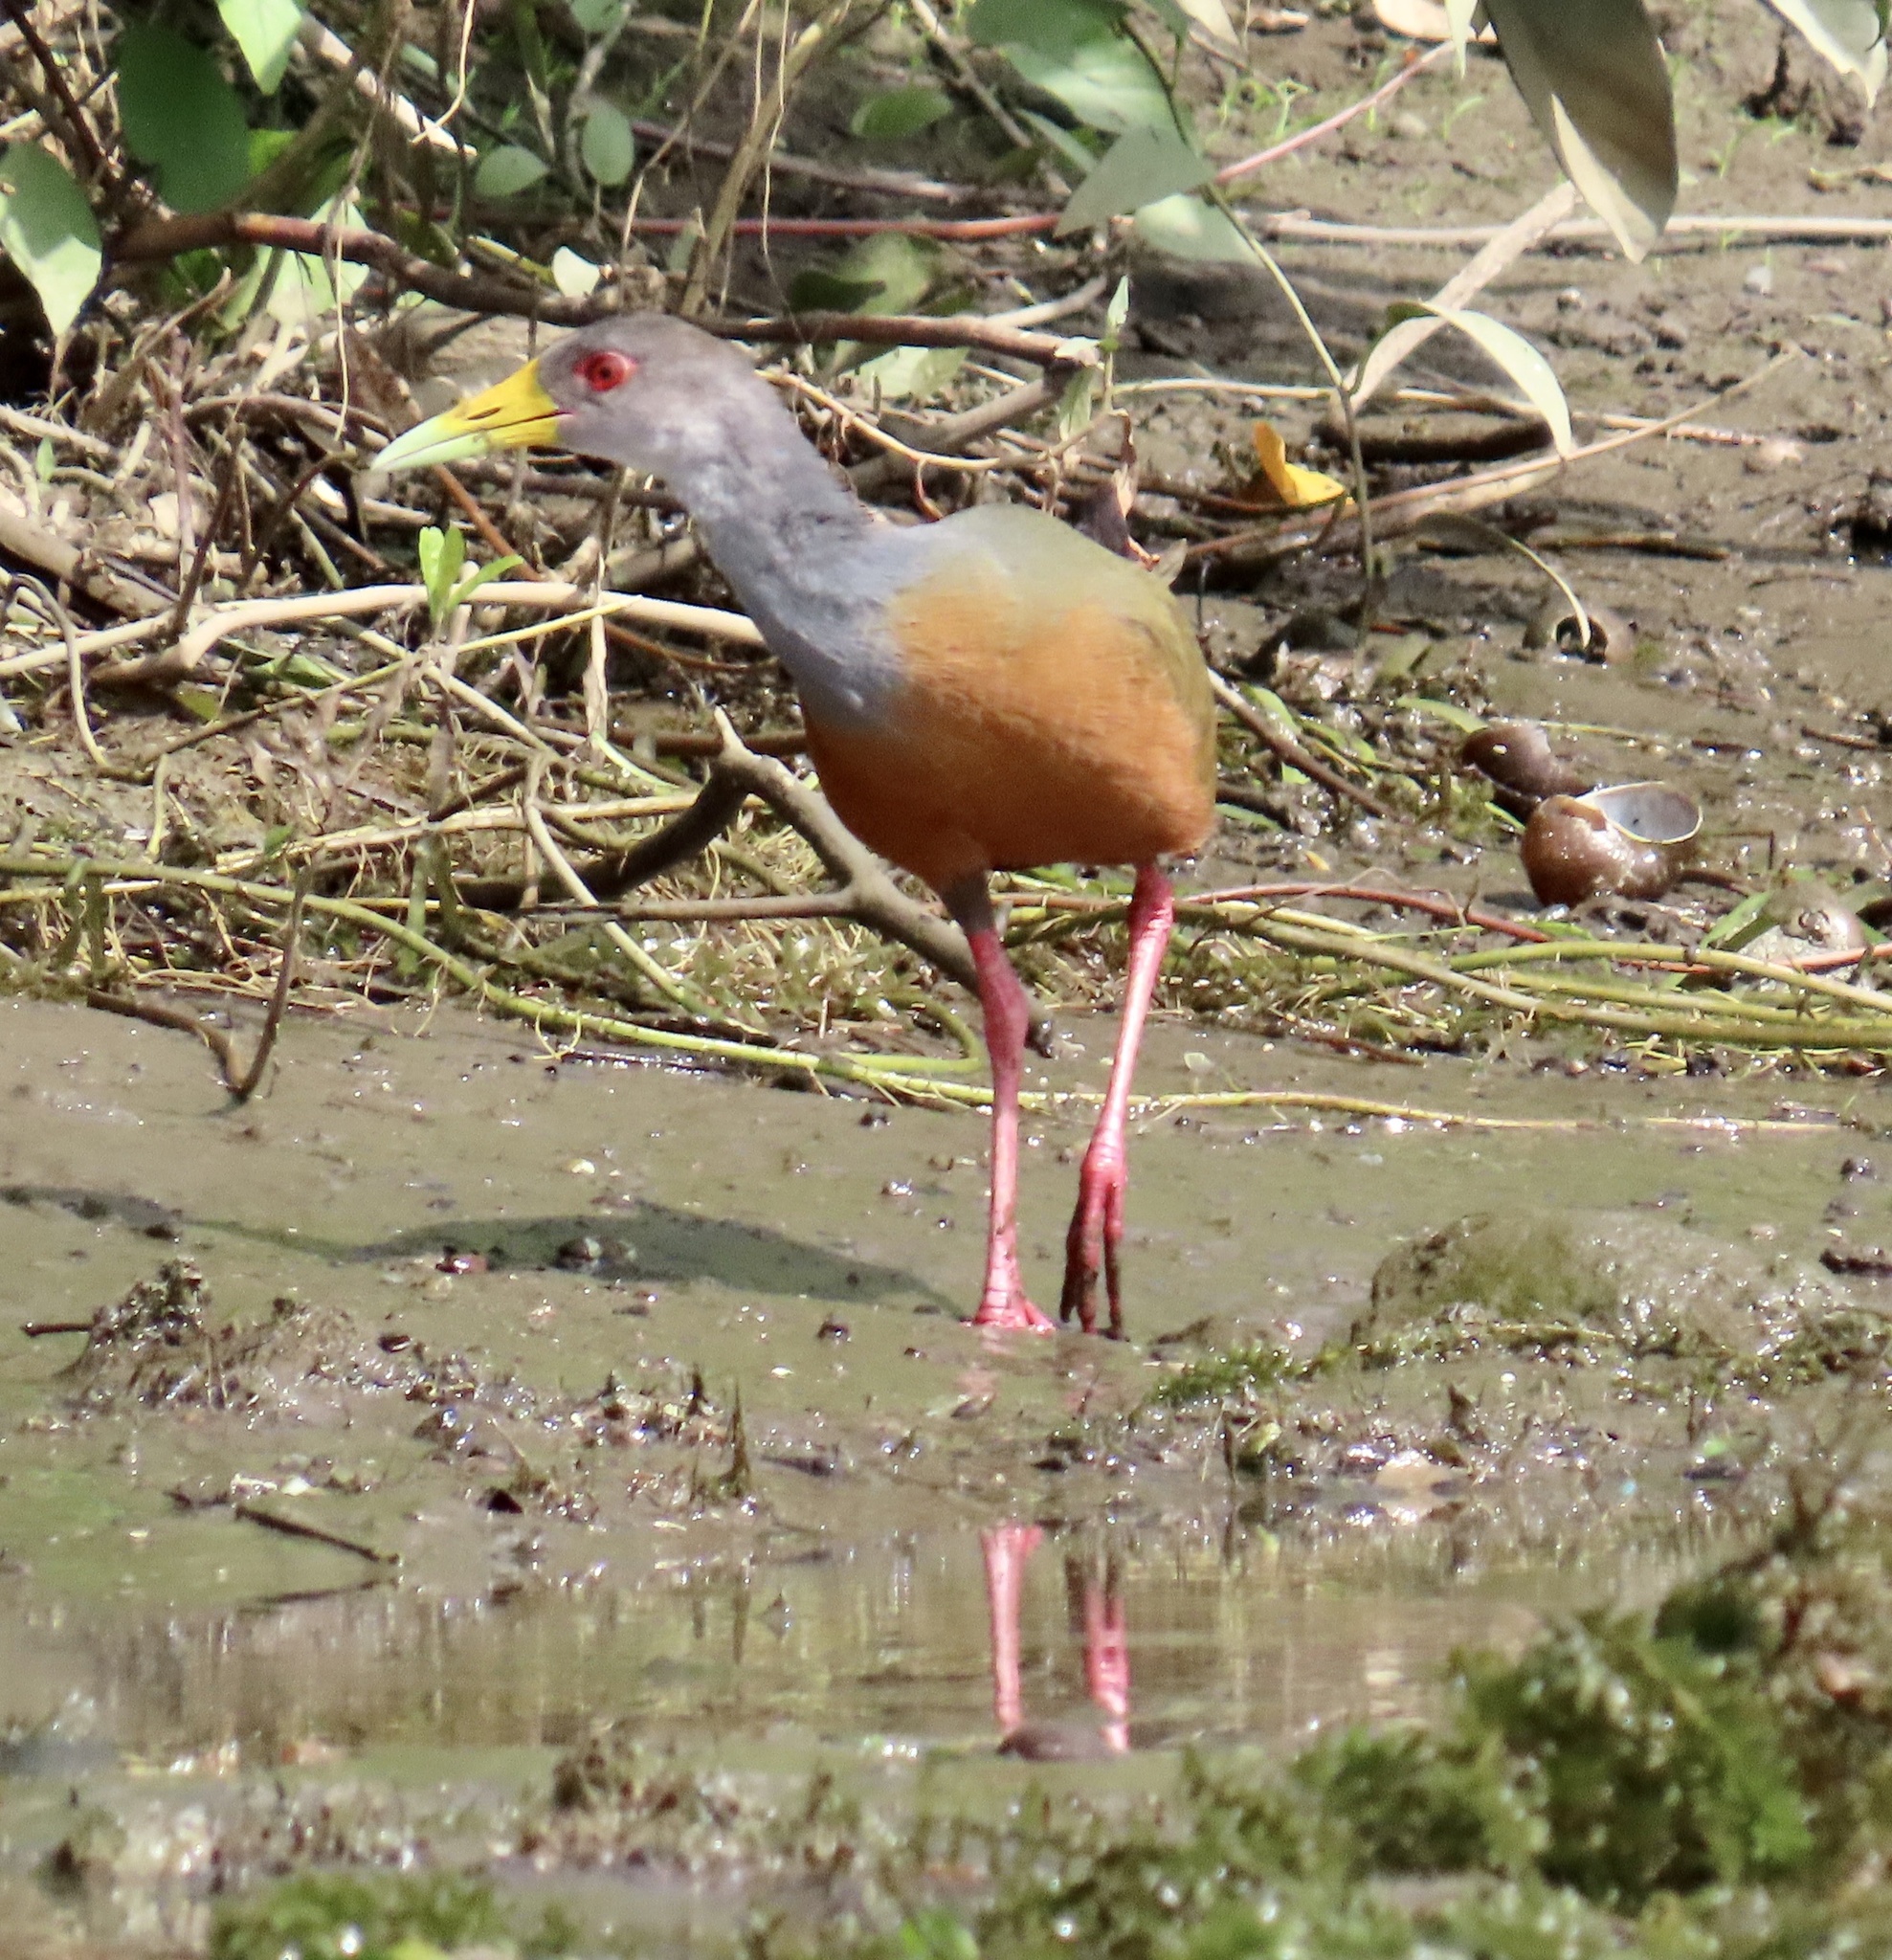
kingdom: Animalia
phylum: Chordata
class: Aves
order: Gruiformes
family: Rallidae
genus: Aramides
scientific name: Aramides cajanea
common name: Gray-necked wood-rail
